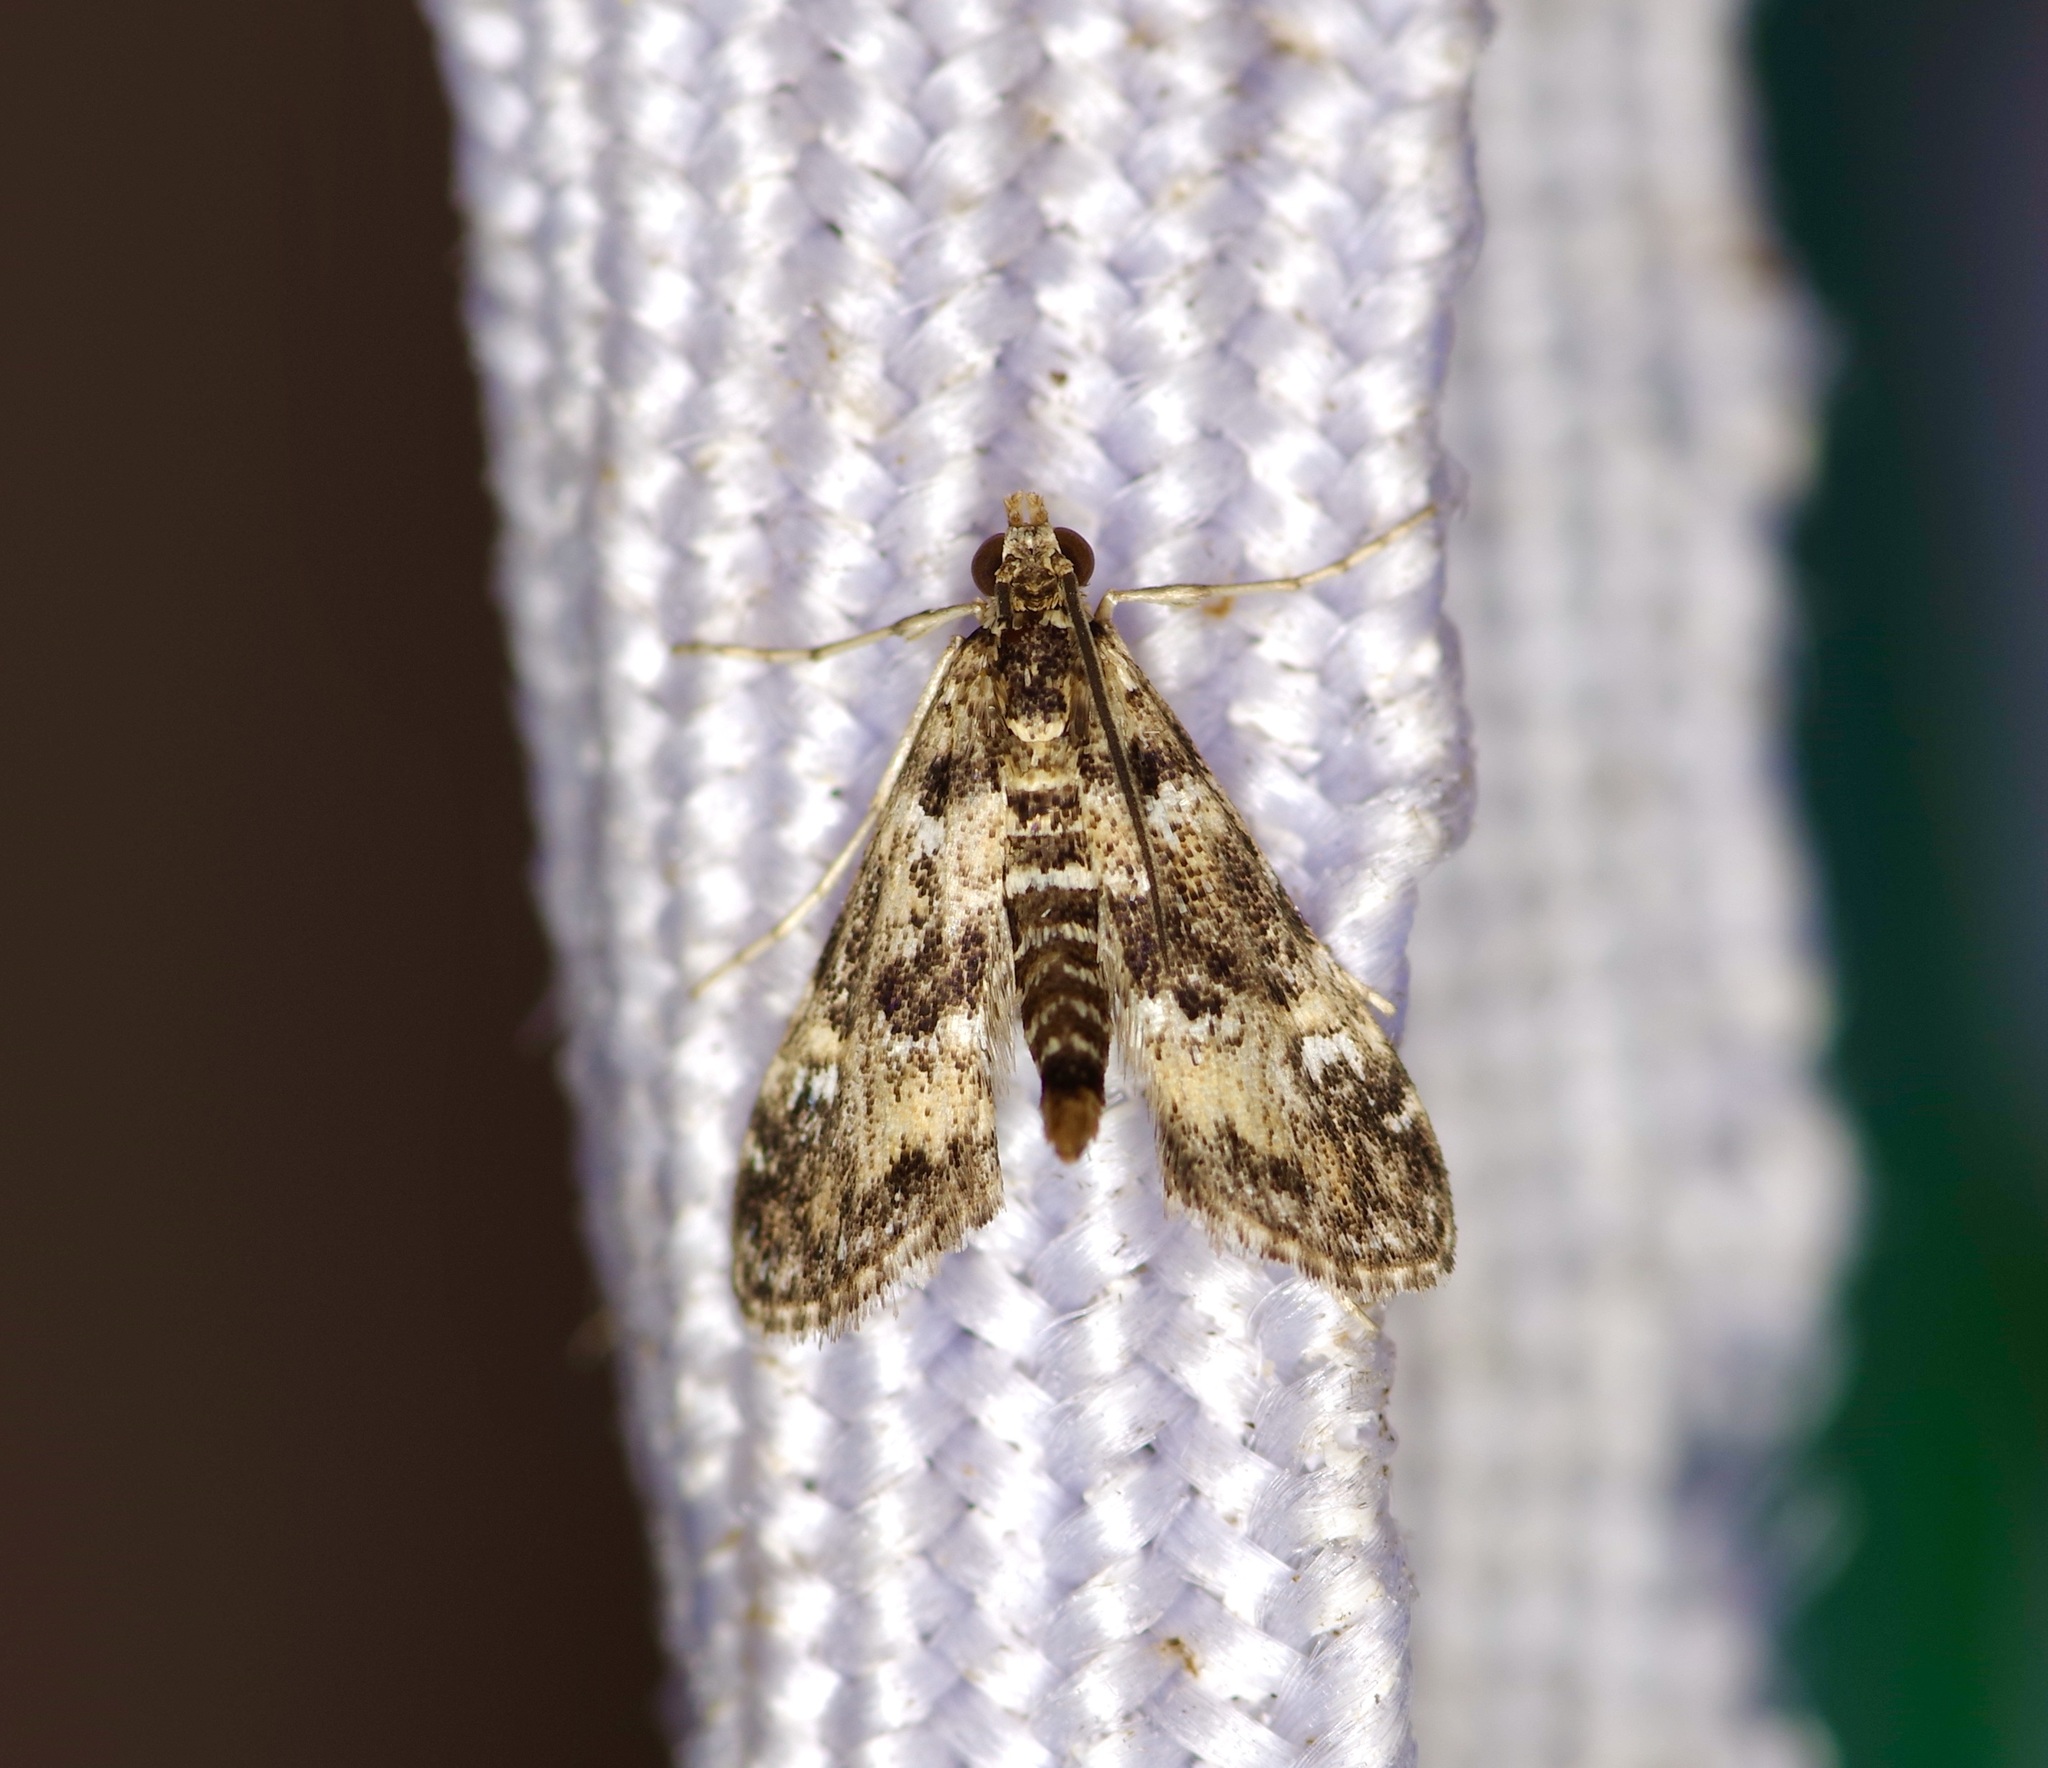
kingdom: Animalia
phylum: Arthropoda
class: Insecta
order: Lepidoptera
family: Crambidae
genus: Elophila
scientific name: Elophila obliteralis
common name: Waterlily leafcutter moth
